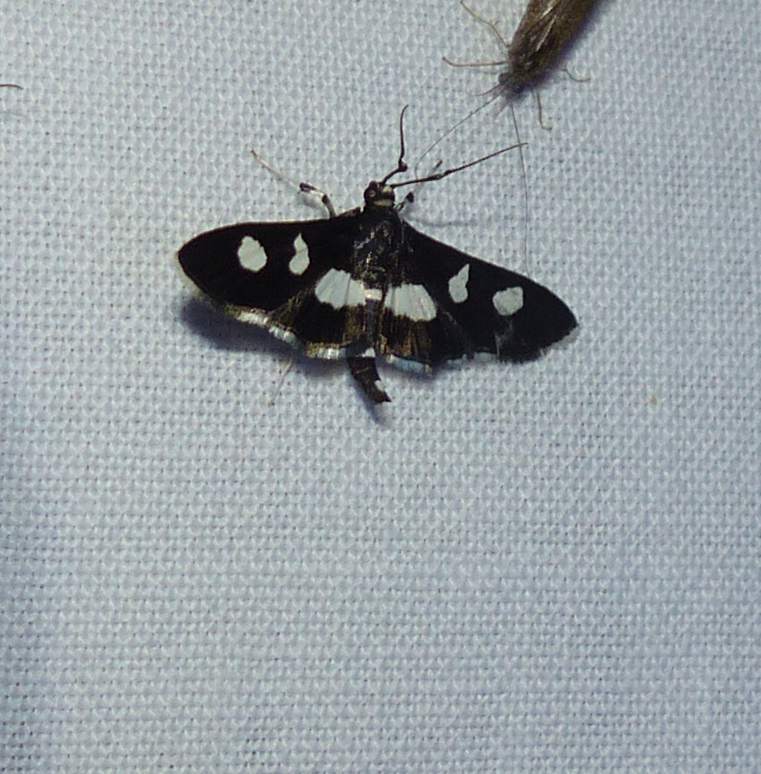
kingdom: Animalia
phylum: Arthropoda
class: Insecta
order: Lepidoptera
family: Crambidae
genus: Desmia
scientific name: Desmia
